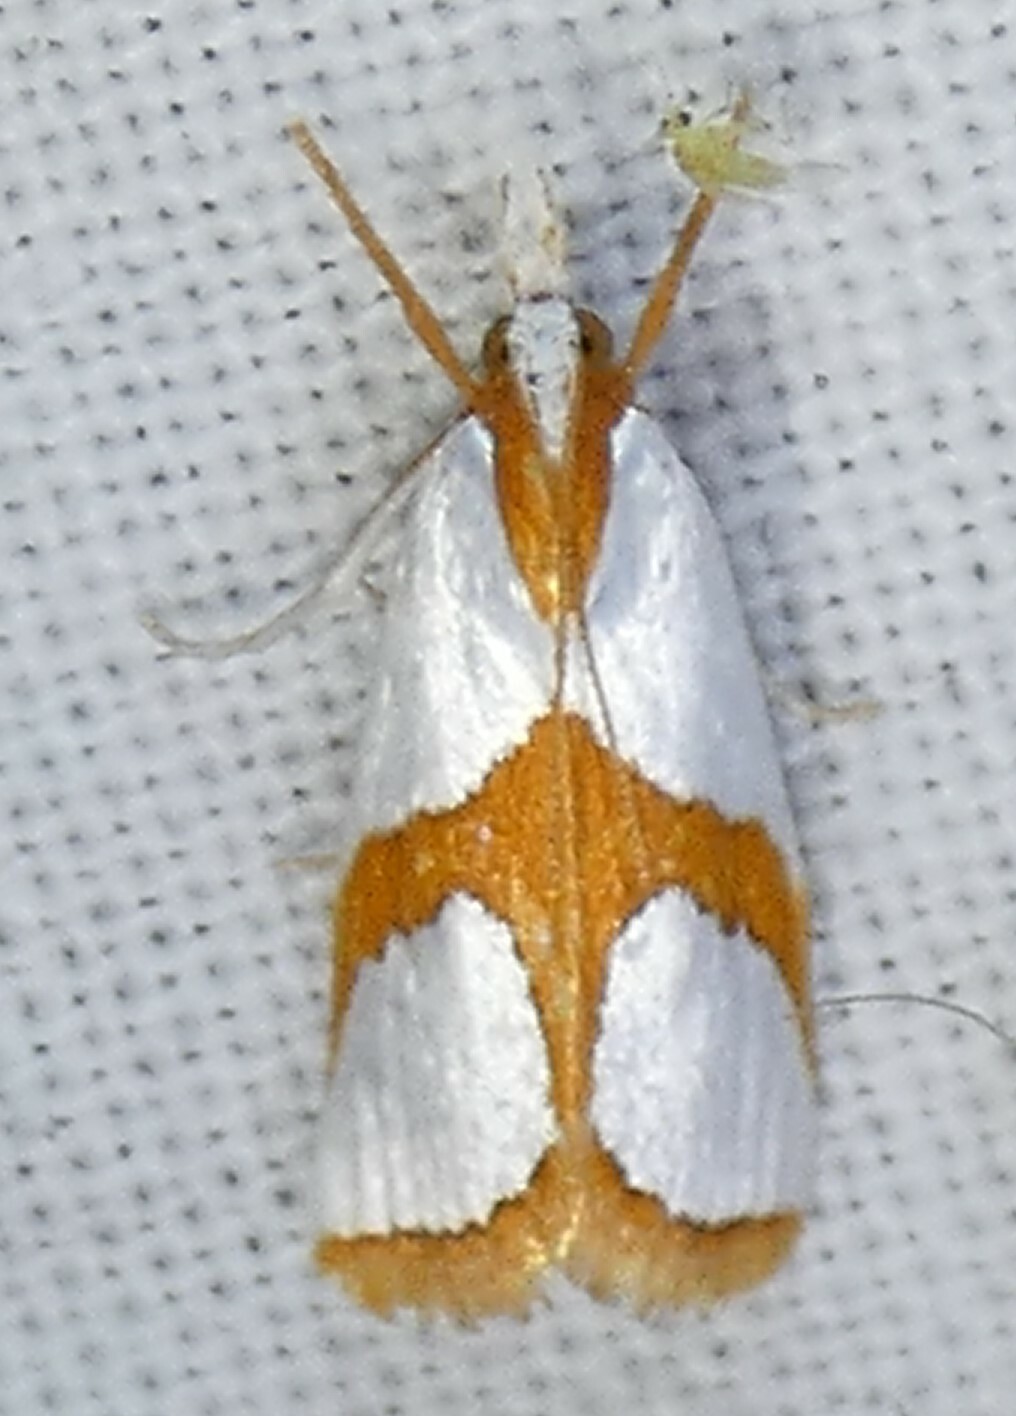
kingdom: Animalia
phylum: Arthropoda
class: Insecta
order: Lepidoptera
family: Crambidae
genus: Argyria
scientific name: Argyria auratella
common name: Curve-lined argyria moth
